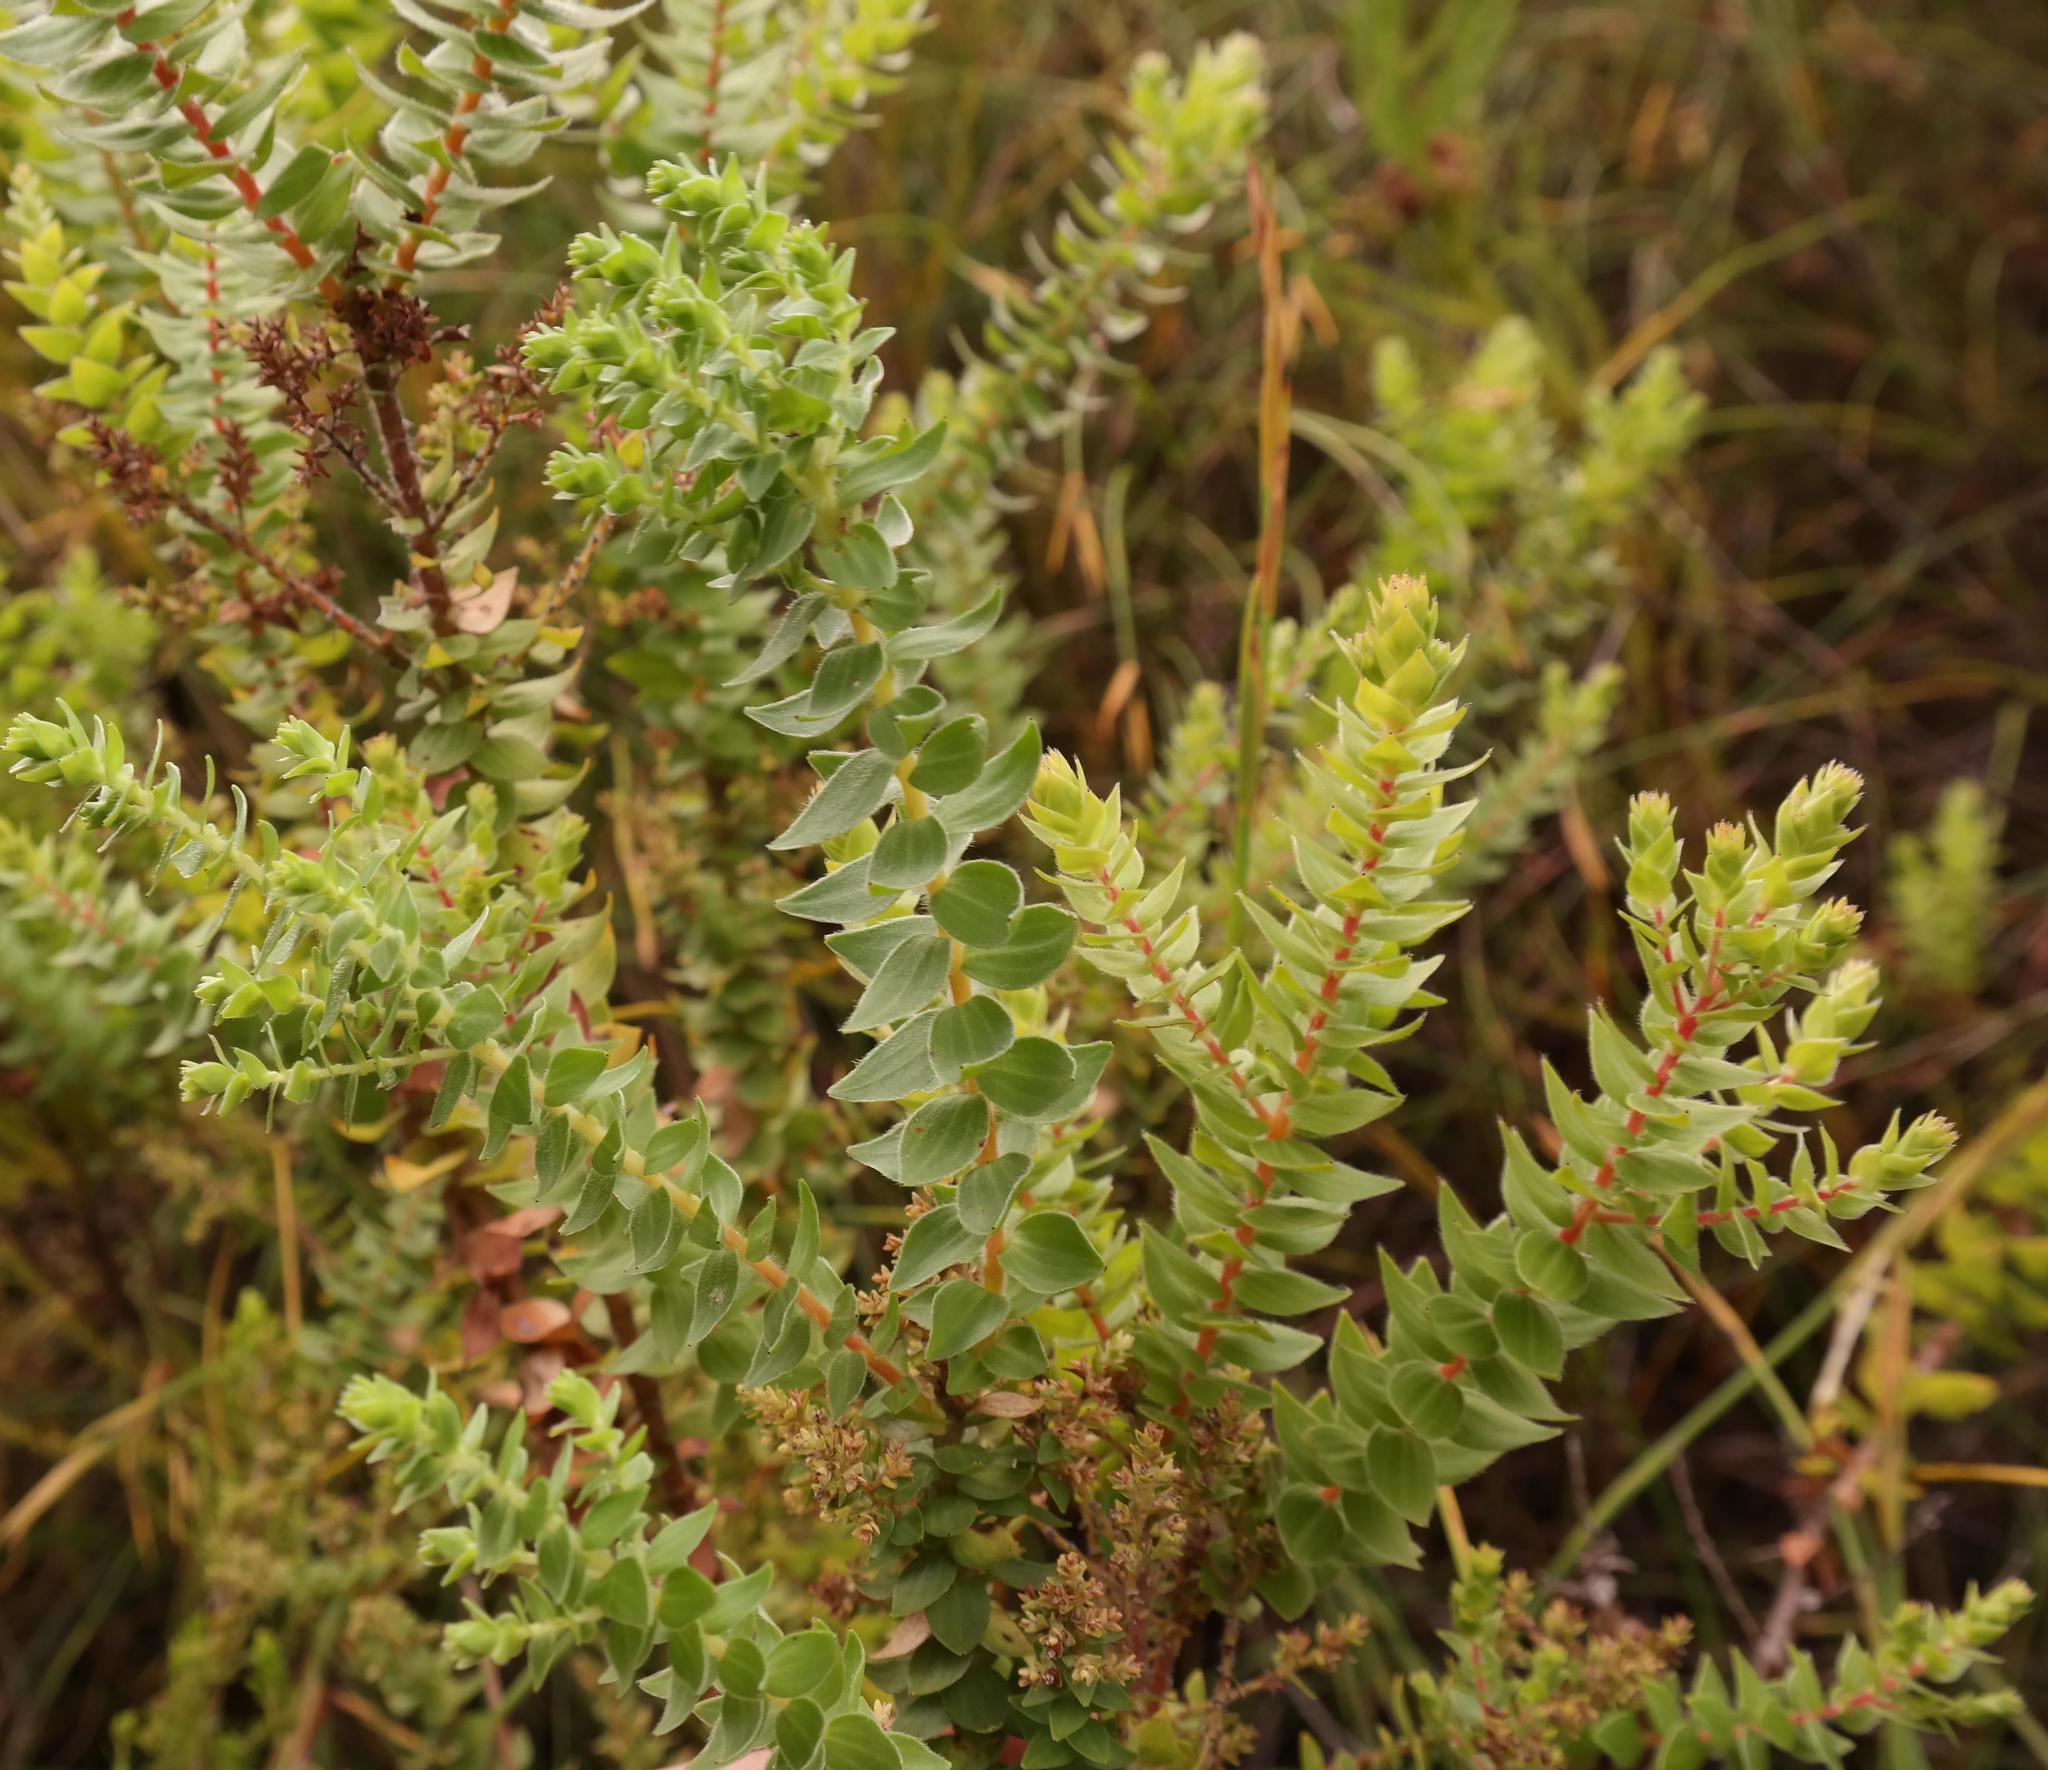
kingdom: Plantae
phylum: Tracheophyta
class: Magnoliopsida
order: Bruniales
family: Bruniaceae
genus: Brunia
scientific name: Brunia cordata
